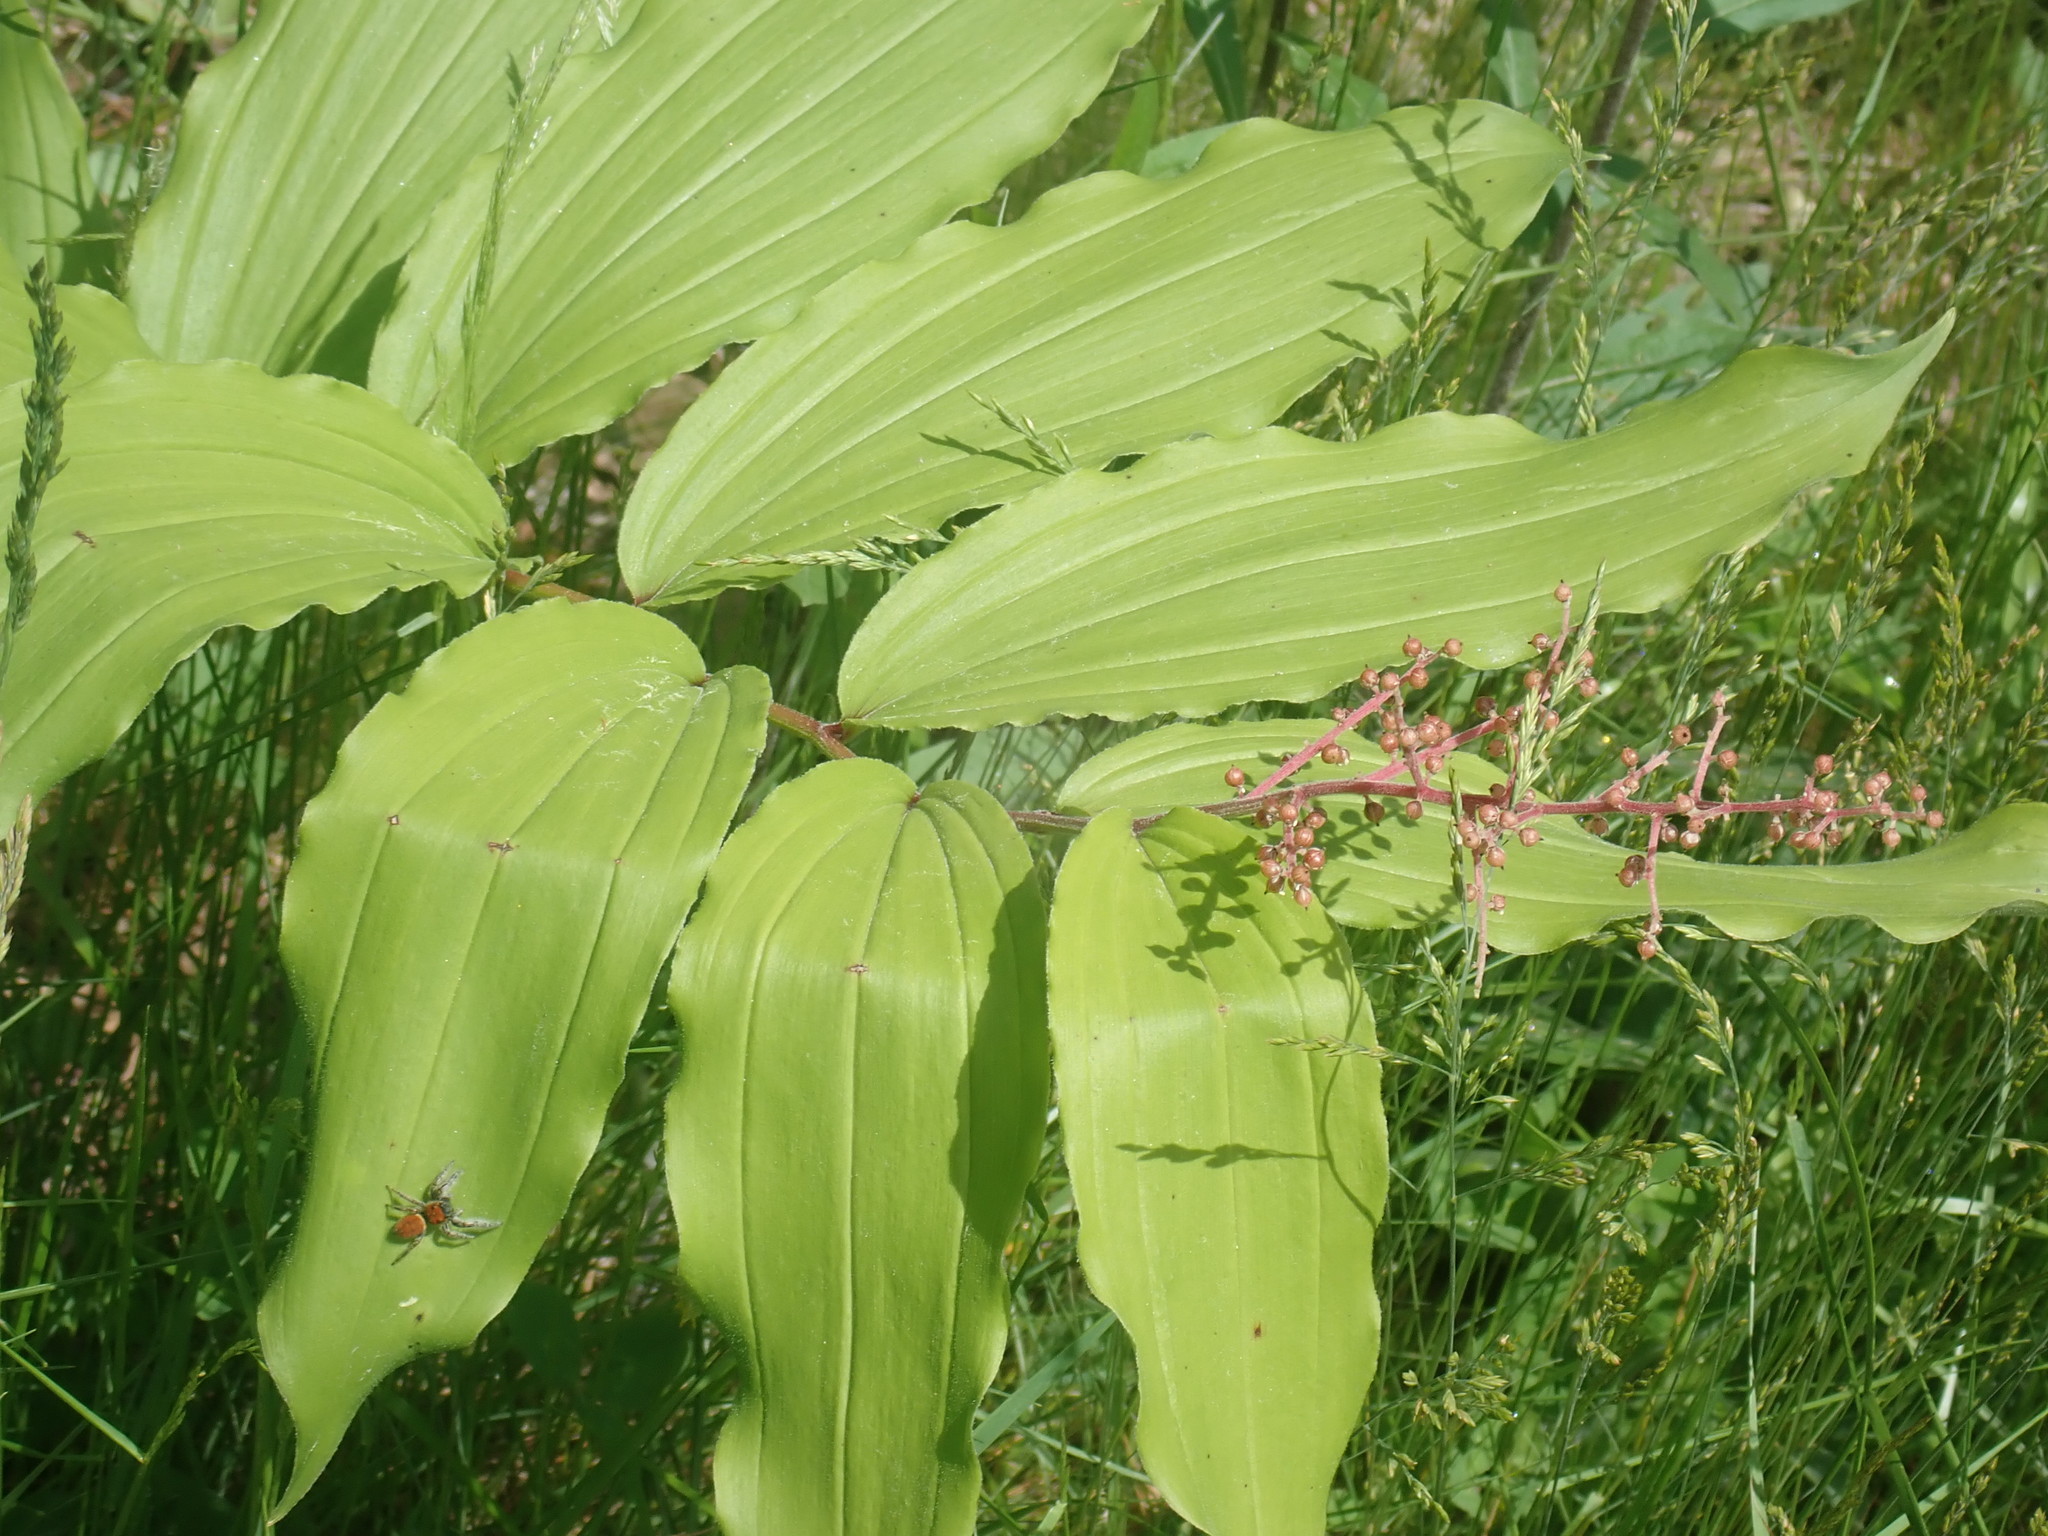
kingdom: Plantae
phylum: Tracheophyta
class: Liliopsida
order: Asparagales
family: Asparagaceae
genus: Maianthemum
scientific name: Maianthemum racemosum
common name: False spikenard
